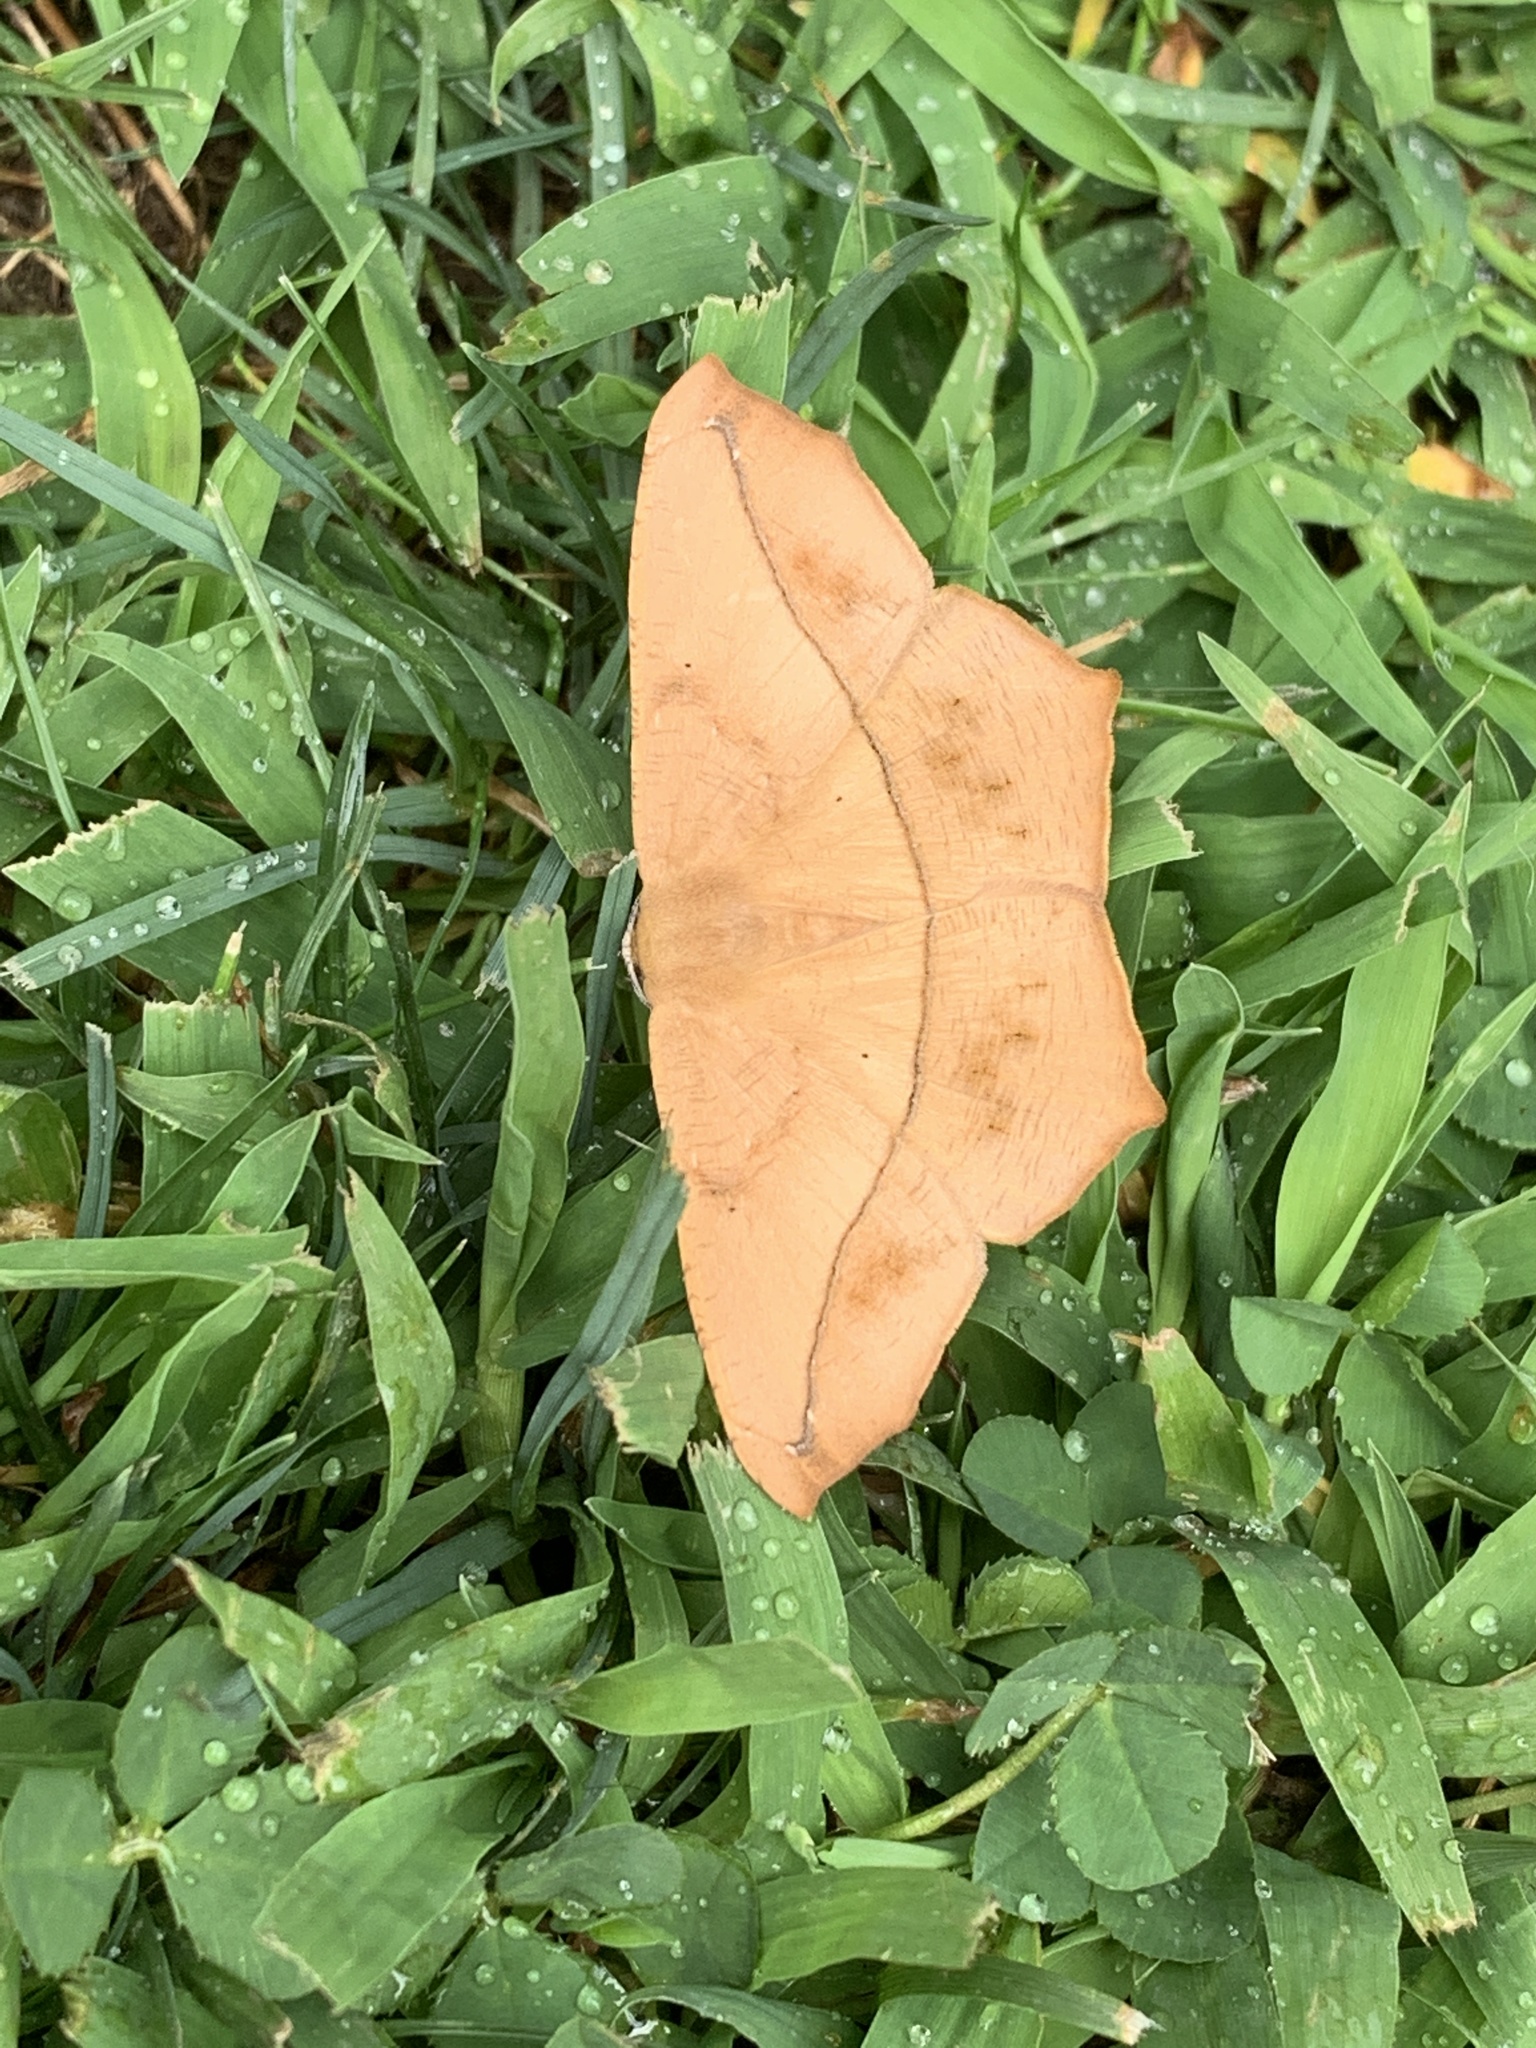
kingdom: Animalia
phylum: Arthropoda
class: Insecta
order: Lepidoptera
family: Geometridae
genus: Prochoerodes
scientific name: Prochoerodes lineola
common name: Large maple spanworm
